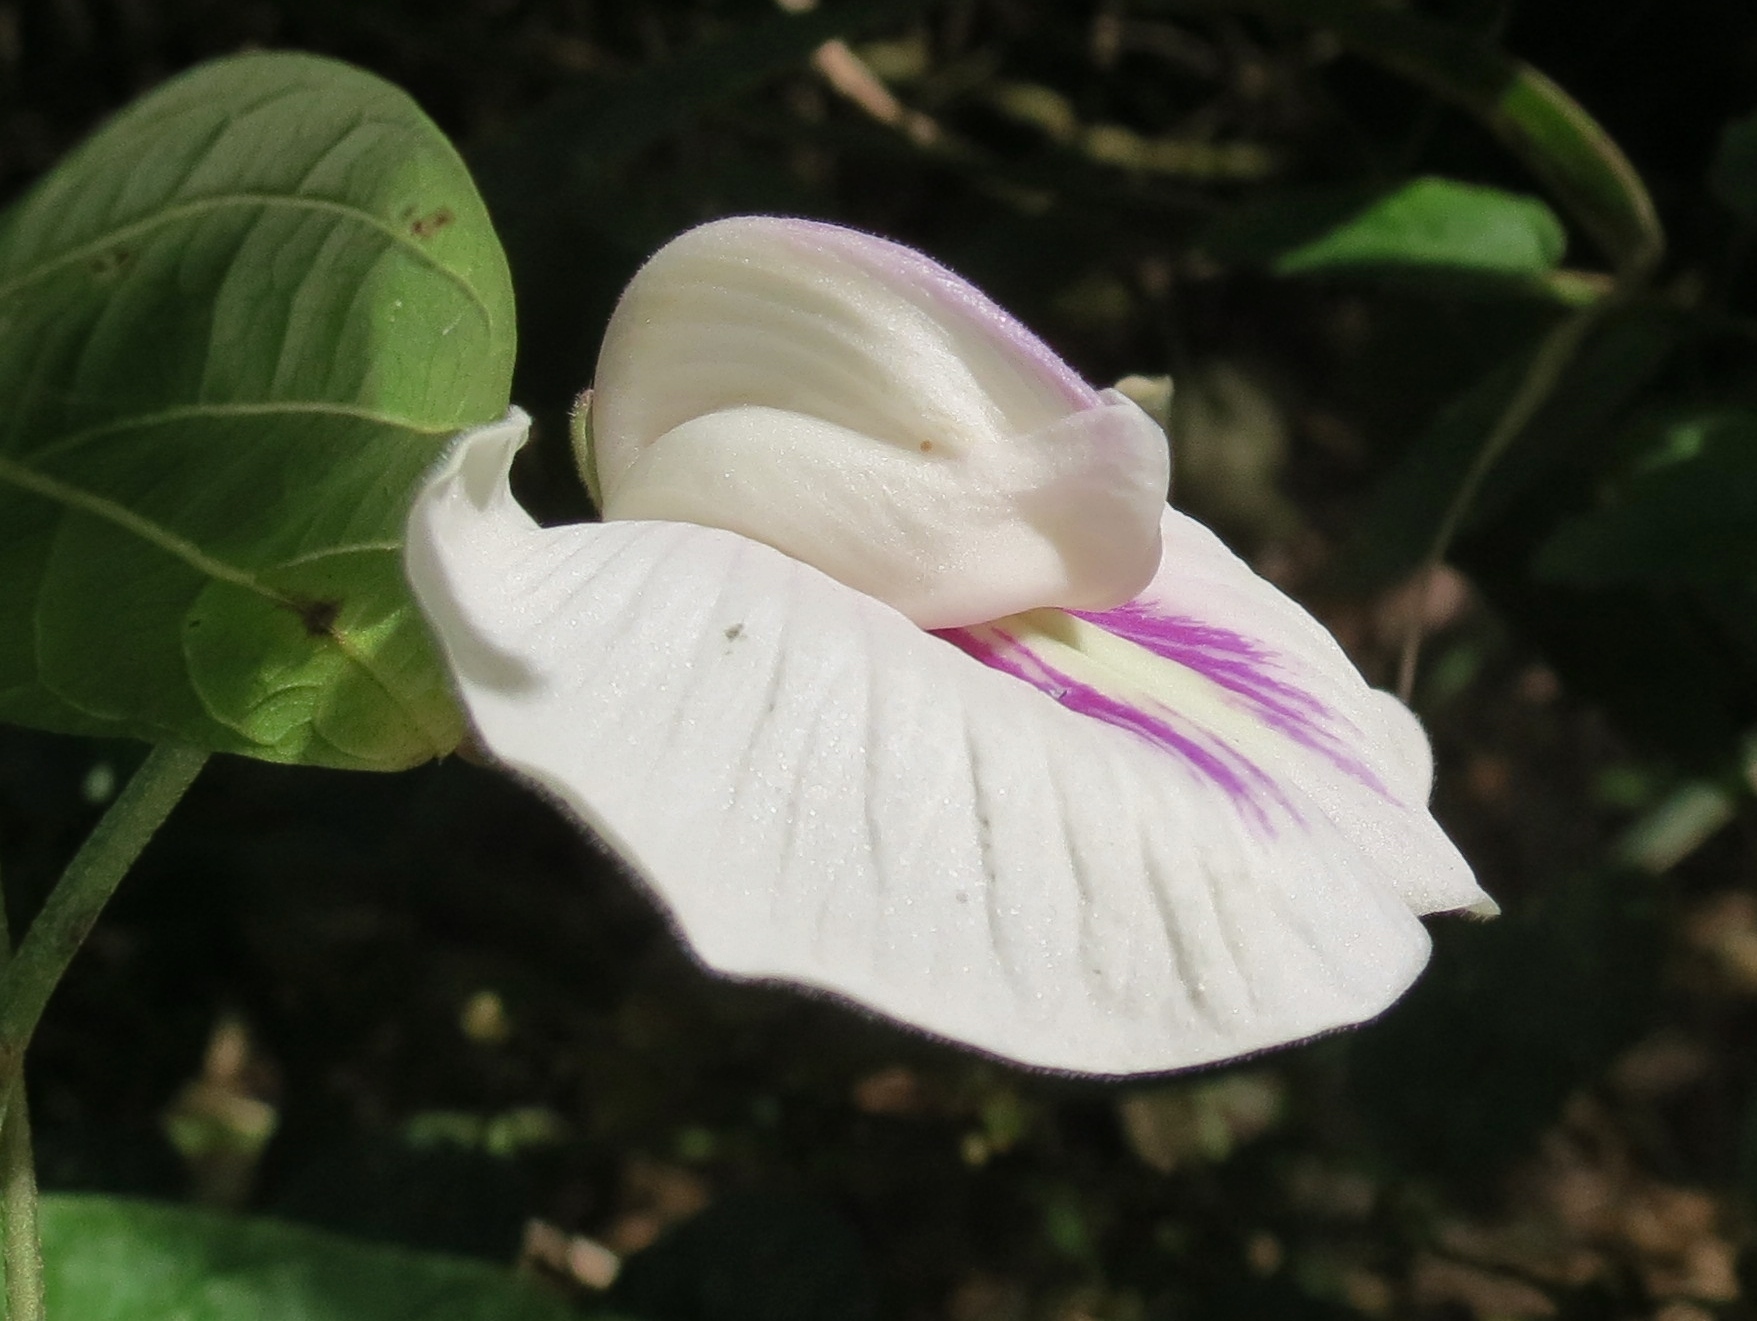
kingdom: Plantae
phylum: Tracheophyta
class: Magnoliopsida
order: Fabales
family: Fabaceae
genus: Centrosema
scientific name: Centrosema pubescens
